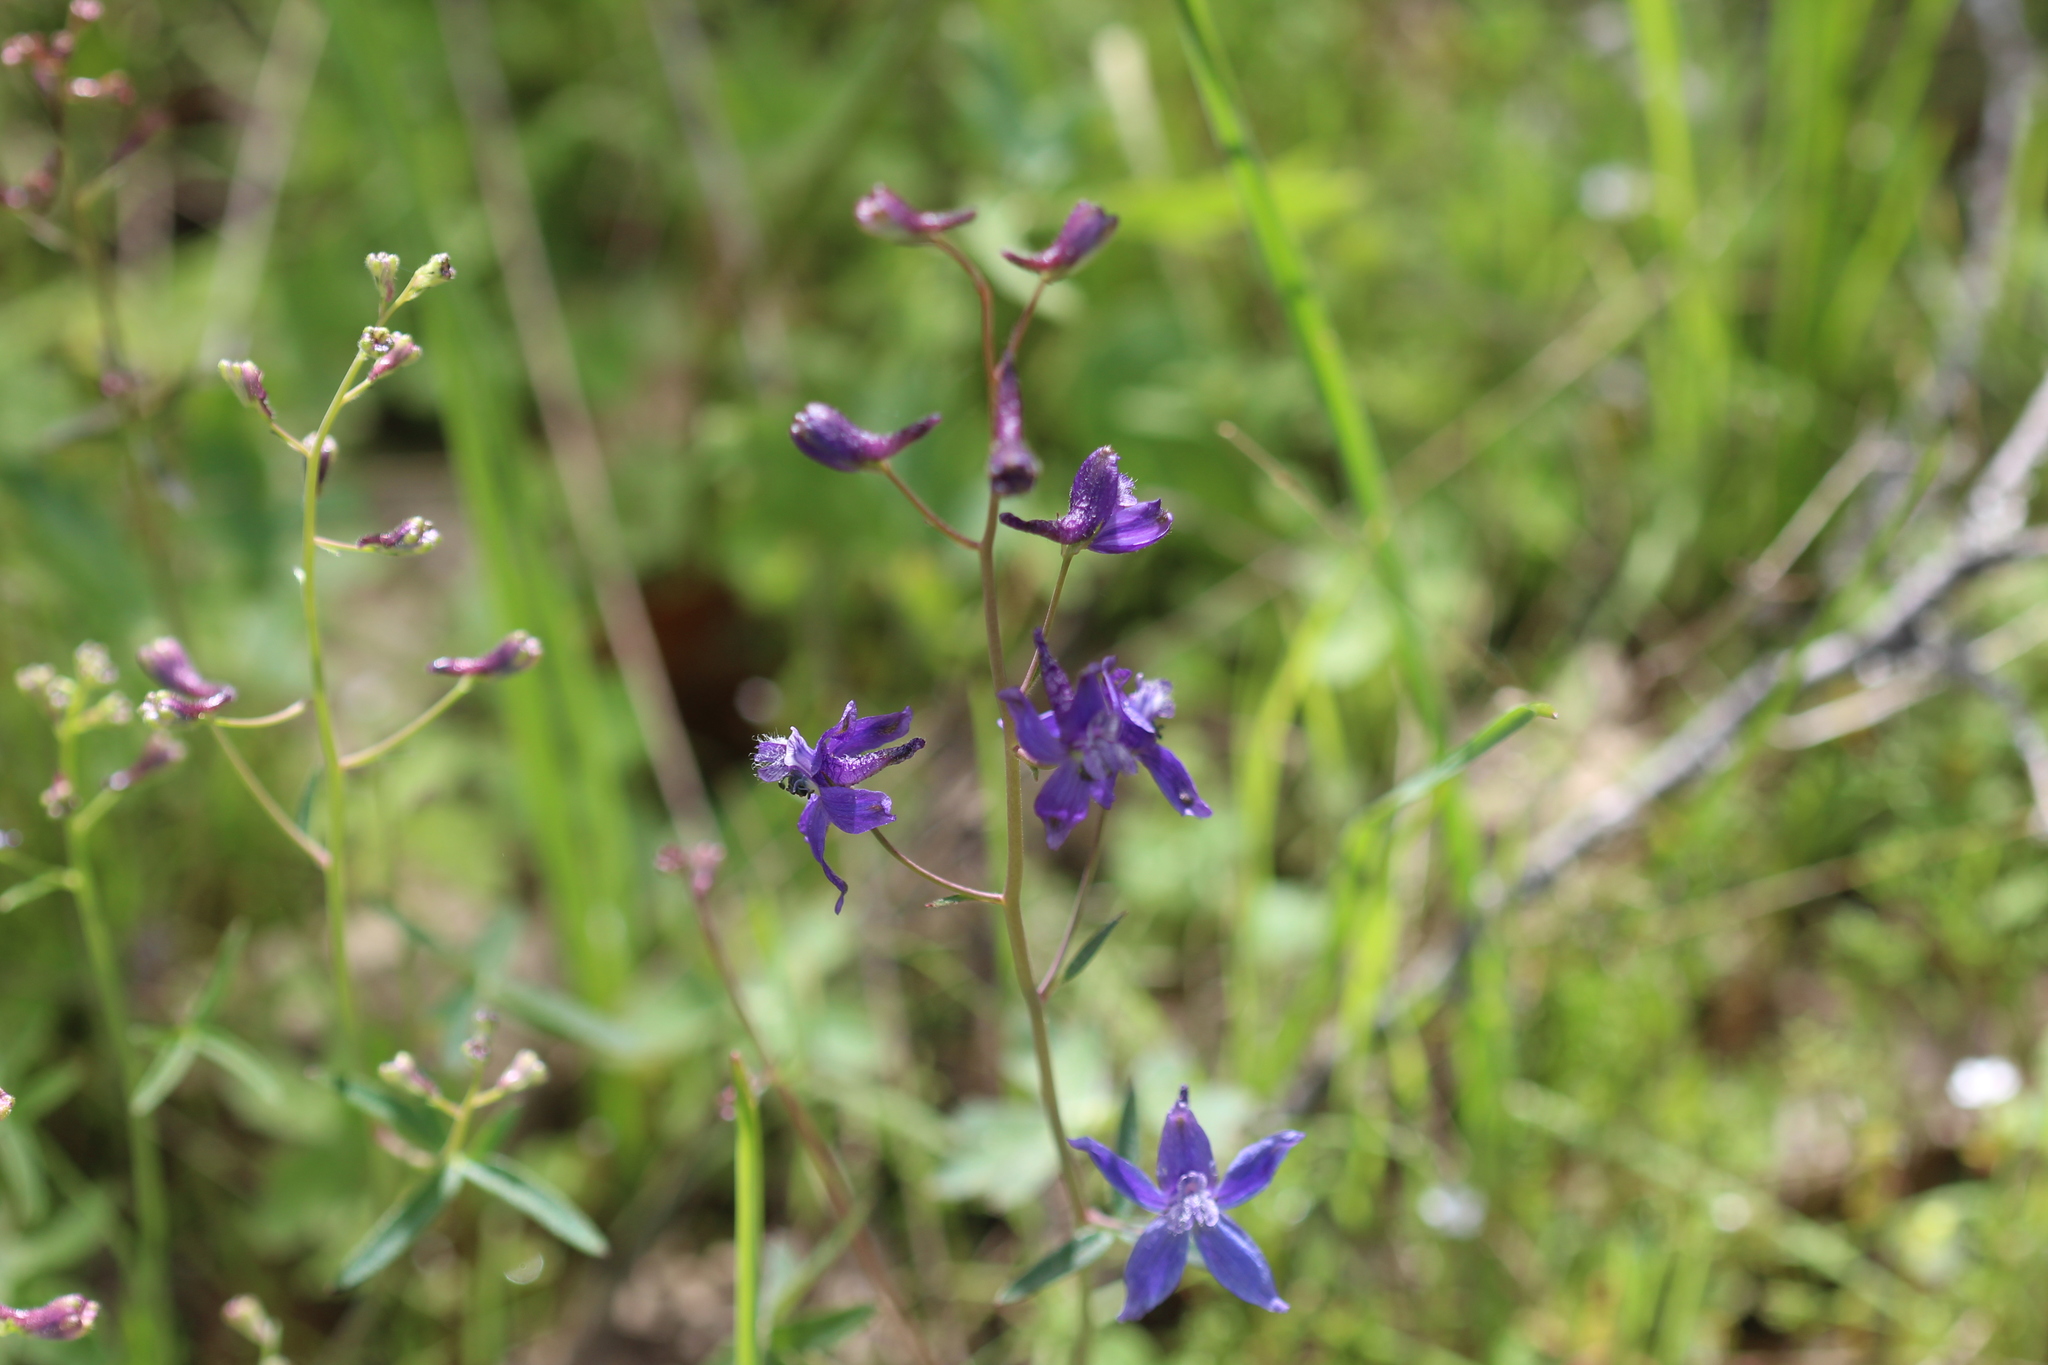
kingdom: Plantae
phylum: Tracheophyta
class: Magnoliopsida
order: Ranunculales
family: Ranunculaceae
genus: Delphinium
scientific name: Delphinium patens
